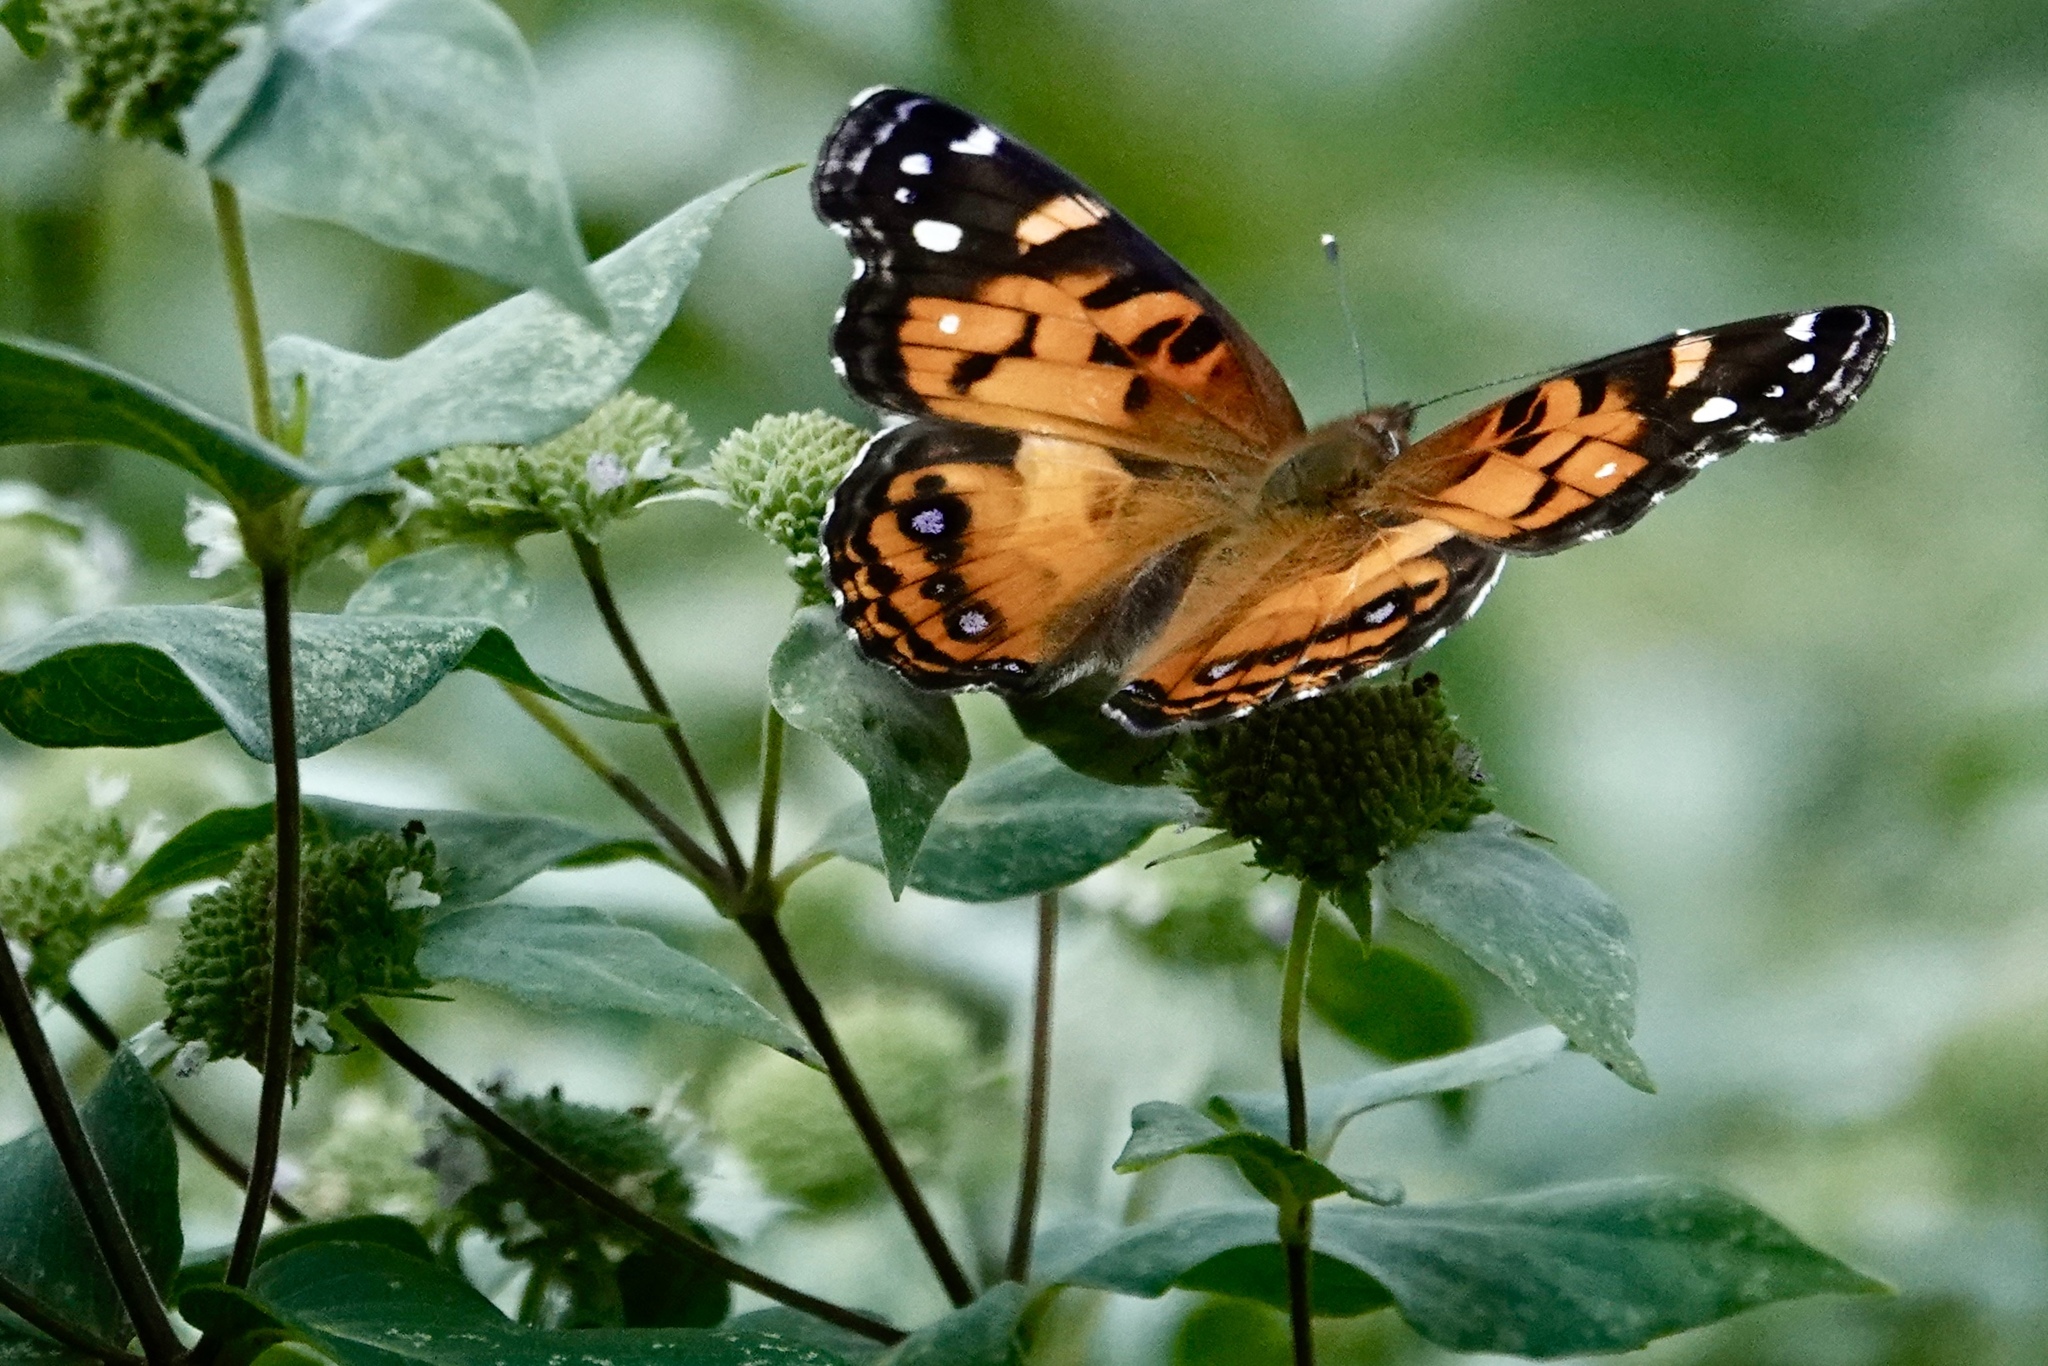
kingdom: Animalia
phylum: Arthropoda
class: Insecta
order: Lepidoptera
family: Nymphalidae
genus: Vanessa
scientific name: Vanessa virginiensis
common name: American lady
